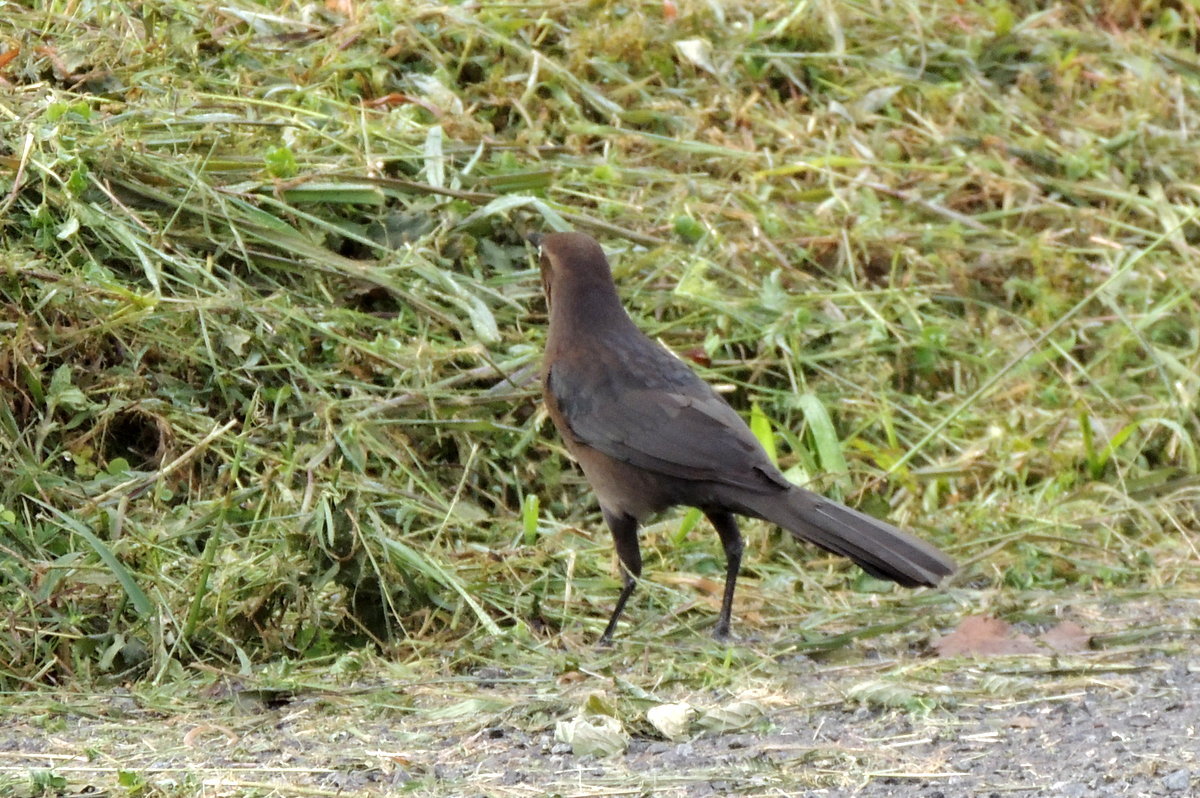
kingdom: Animalia
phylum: Chordata
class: Aves
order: Passeriformes
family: Icteridae
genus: Quiscalus
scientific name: Quiscalus mexicanus
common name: Great-tailed grackle
